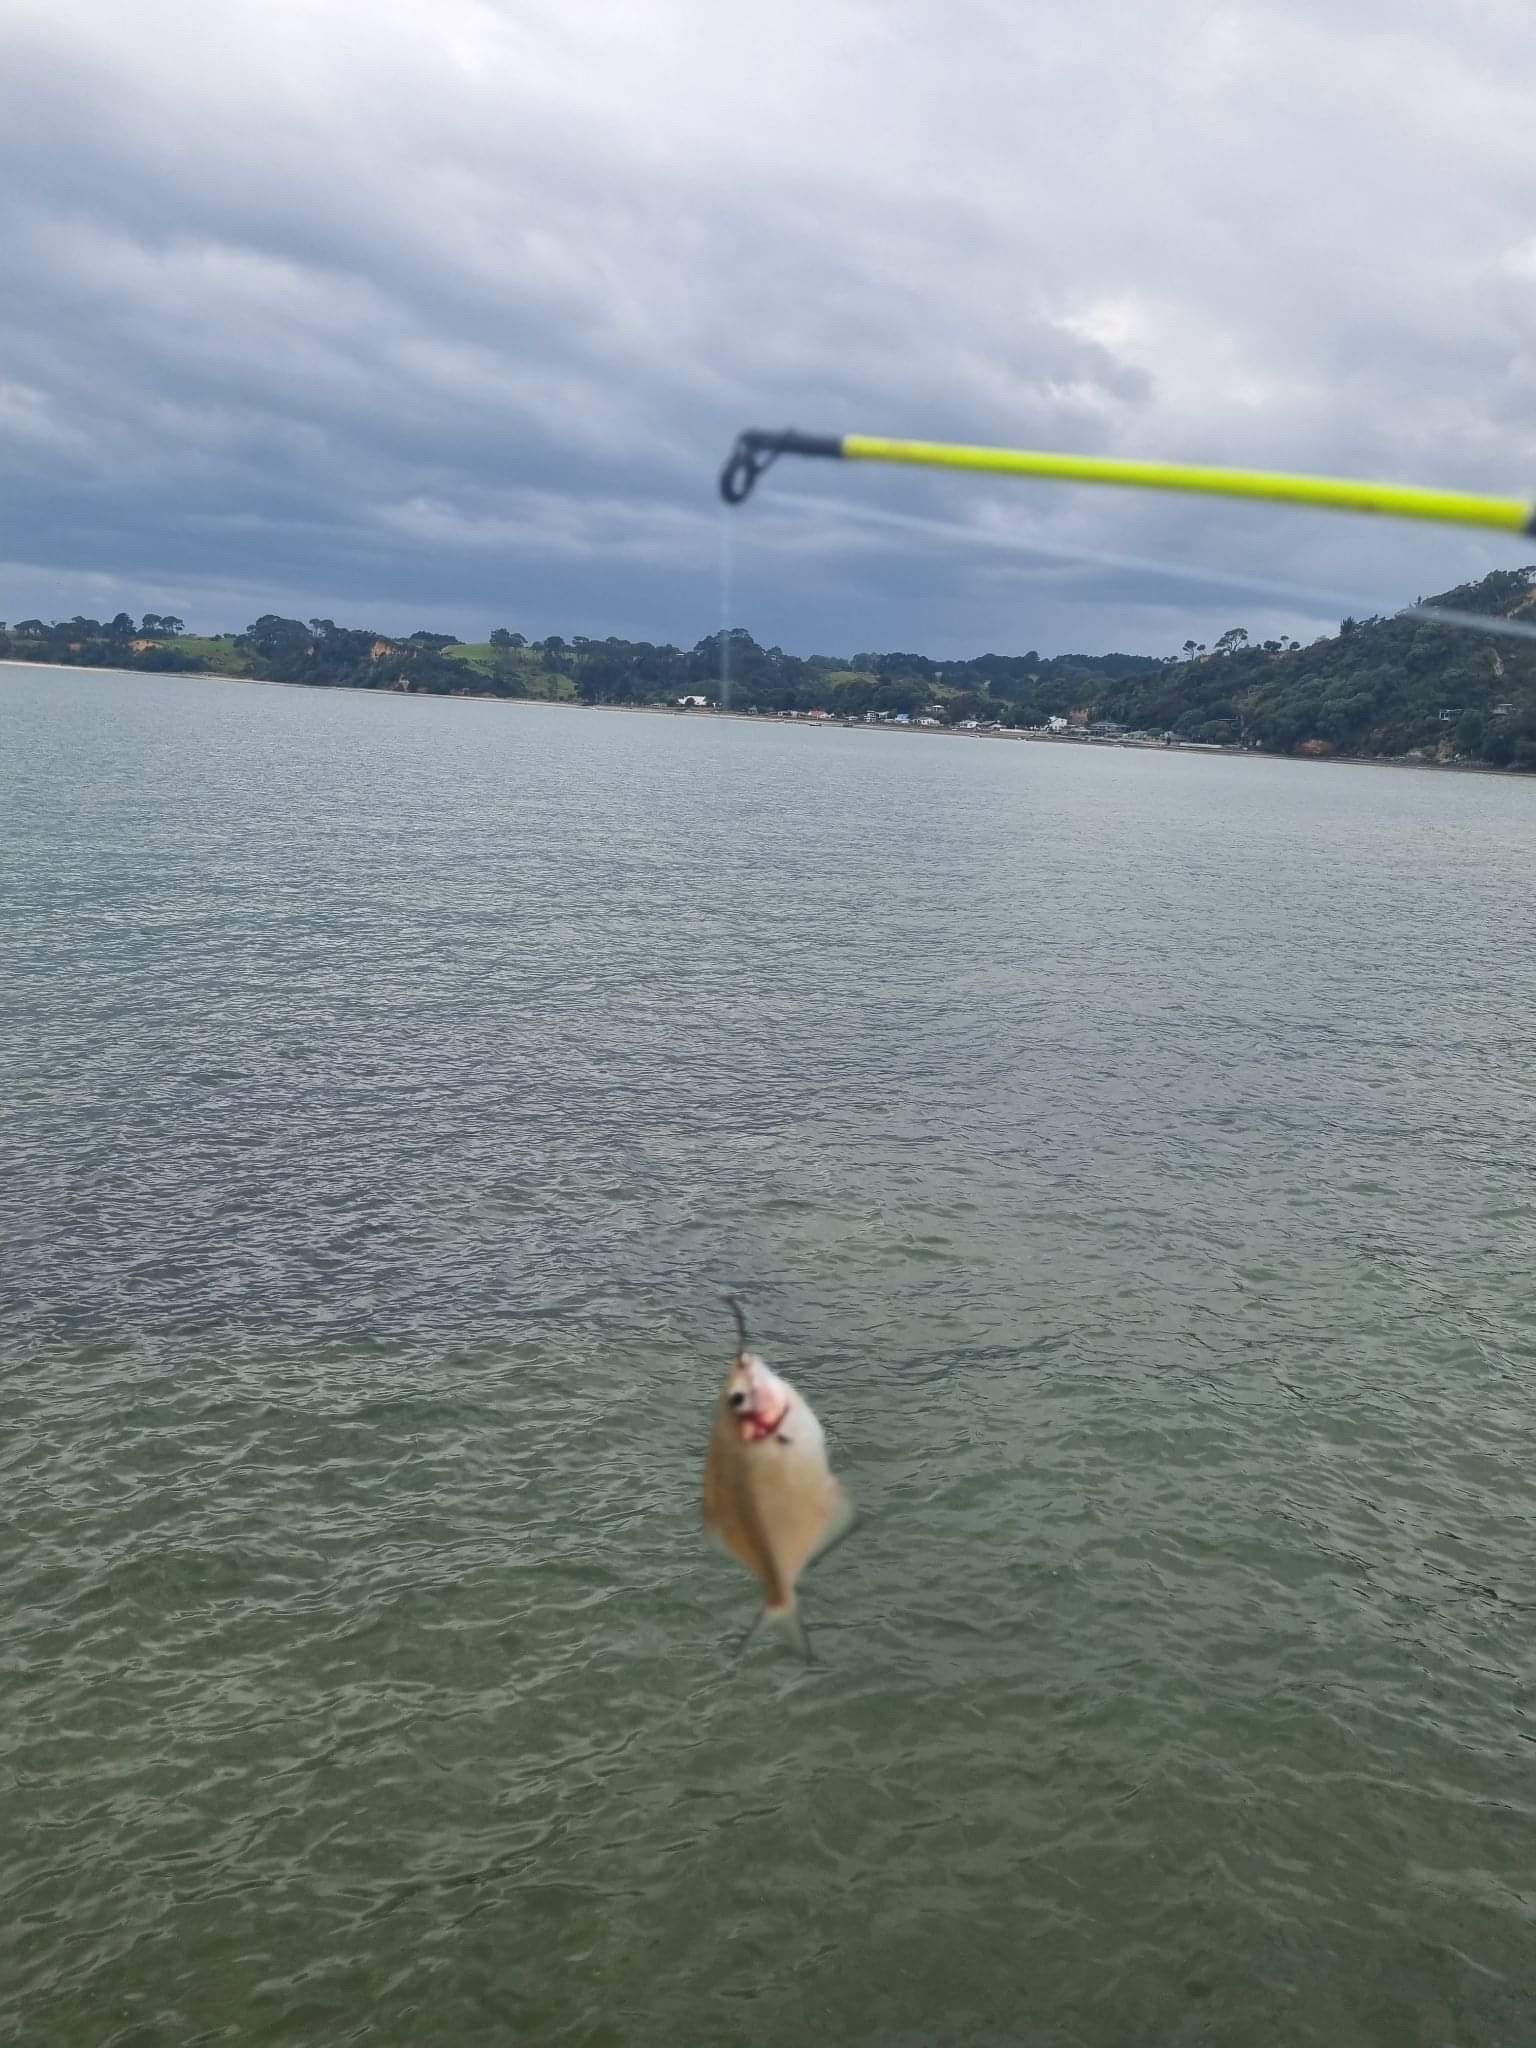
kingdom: Animalia
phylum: Chordata
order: Perciformes
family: Kyphosidae
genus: Scorpis
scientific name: Scorpis lineolata
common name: Sweep
